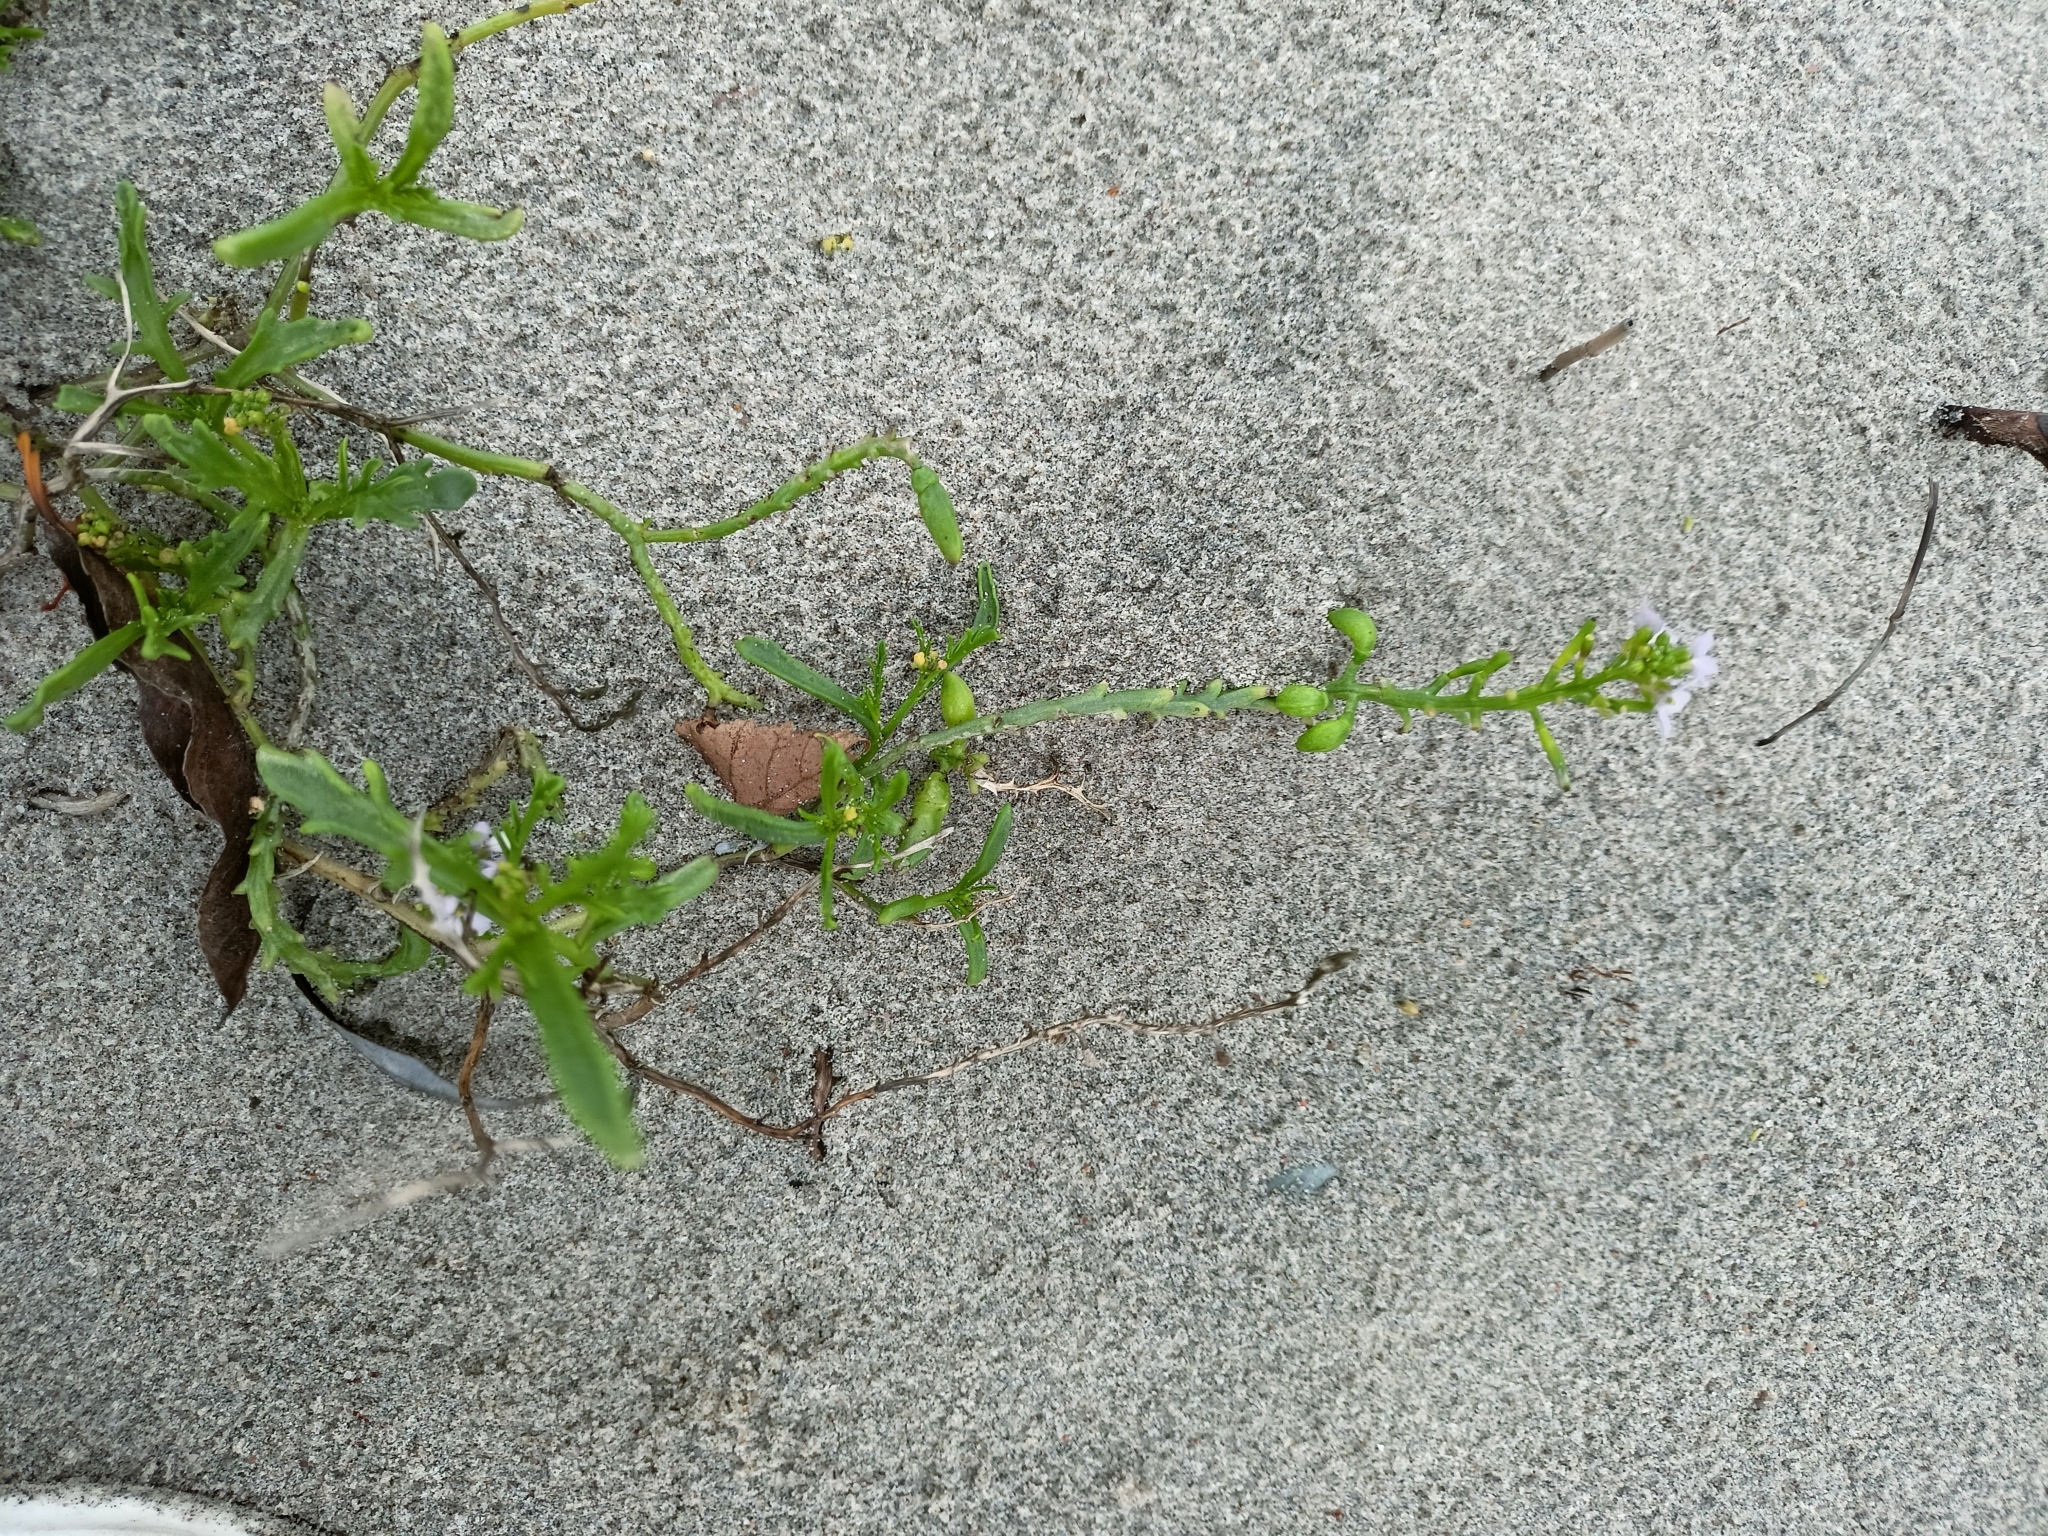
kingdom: Plantae
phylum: Tracheophyta
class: Magnoliopsida
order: Brassicales
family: Brassicaceae
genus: Cakile
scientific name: Cakile maritima
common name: Sea rocket
